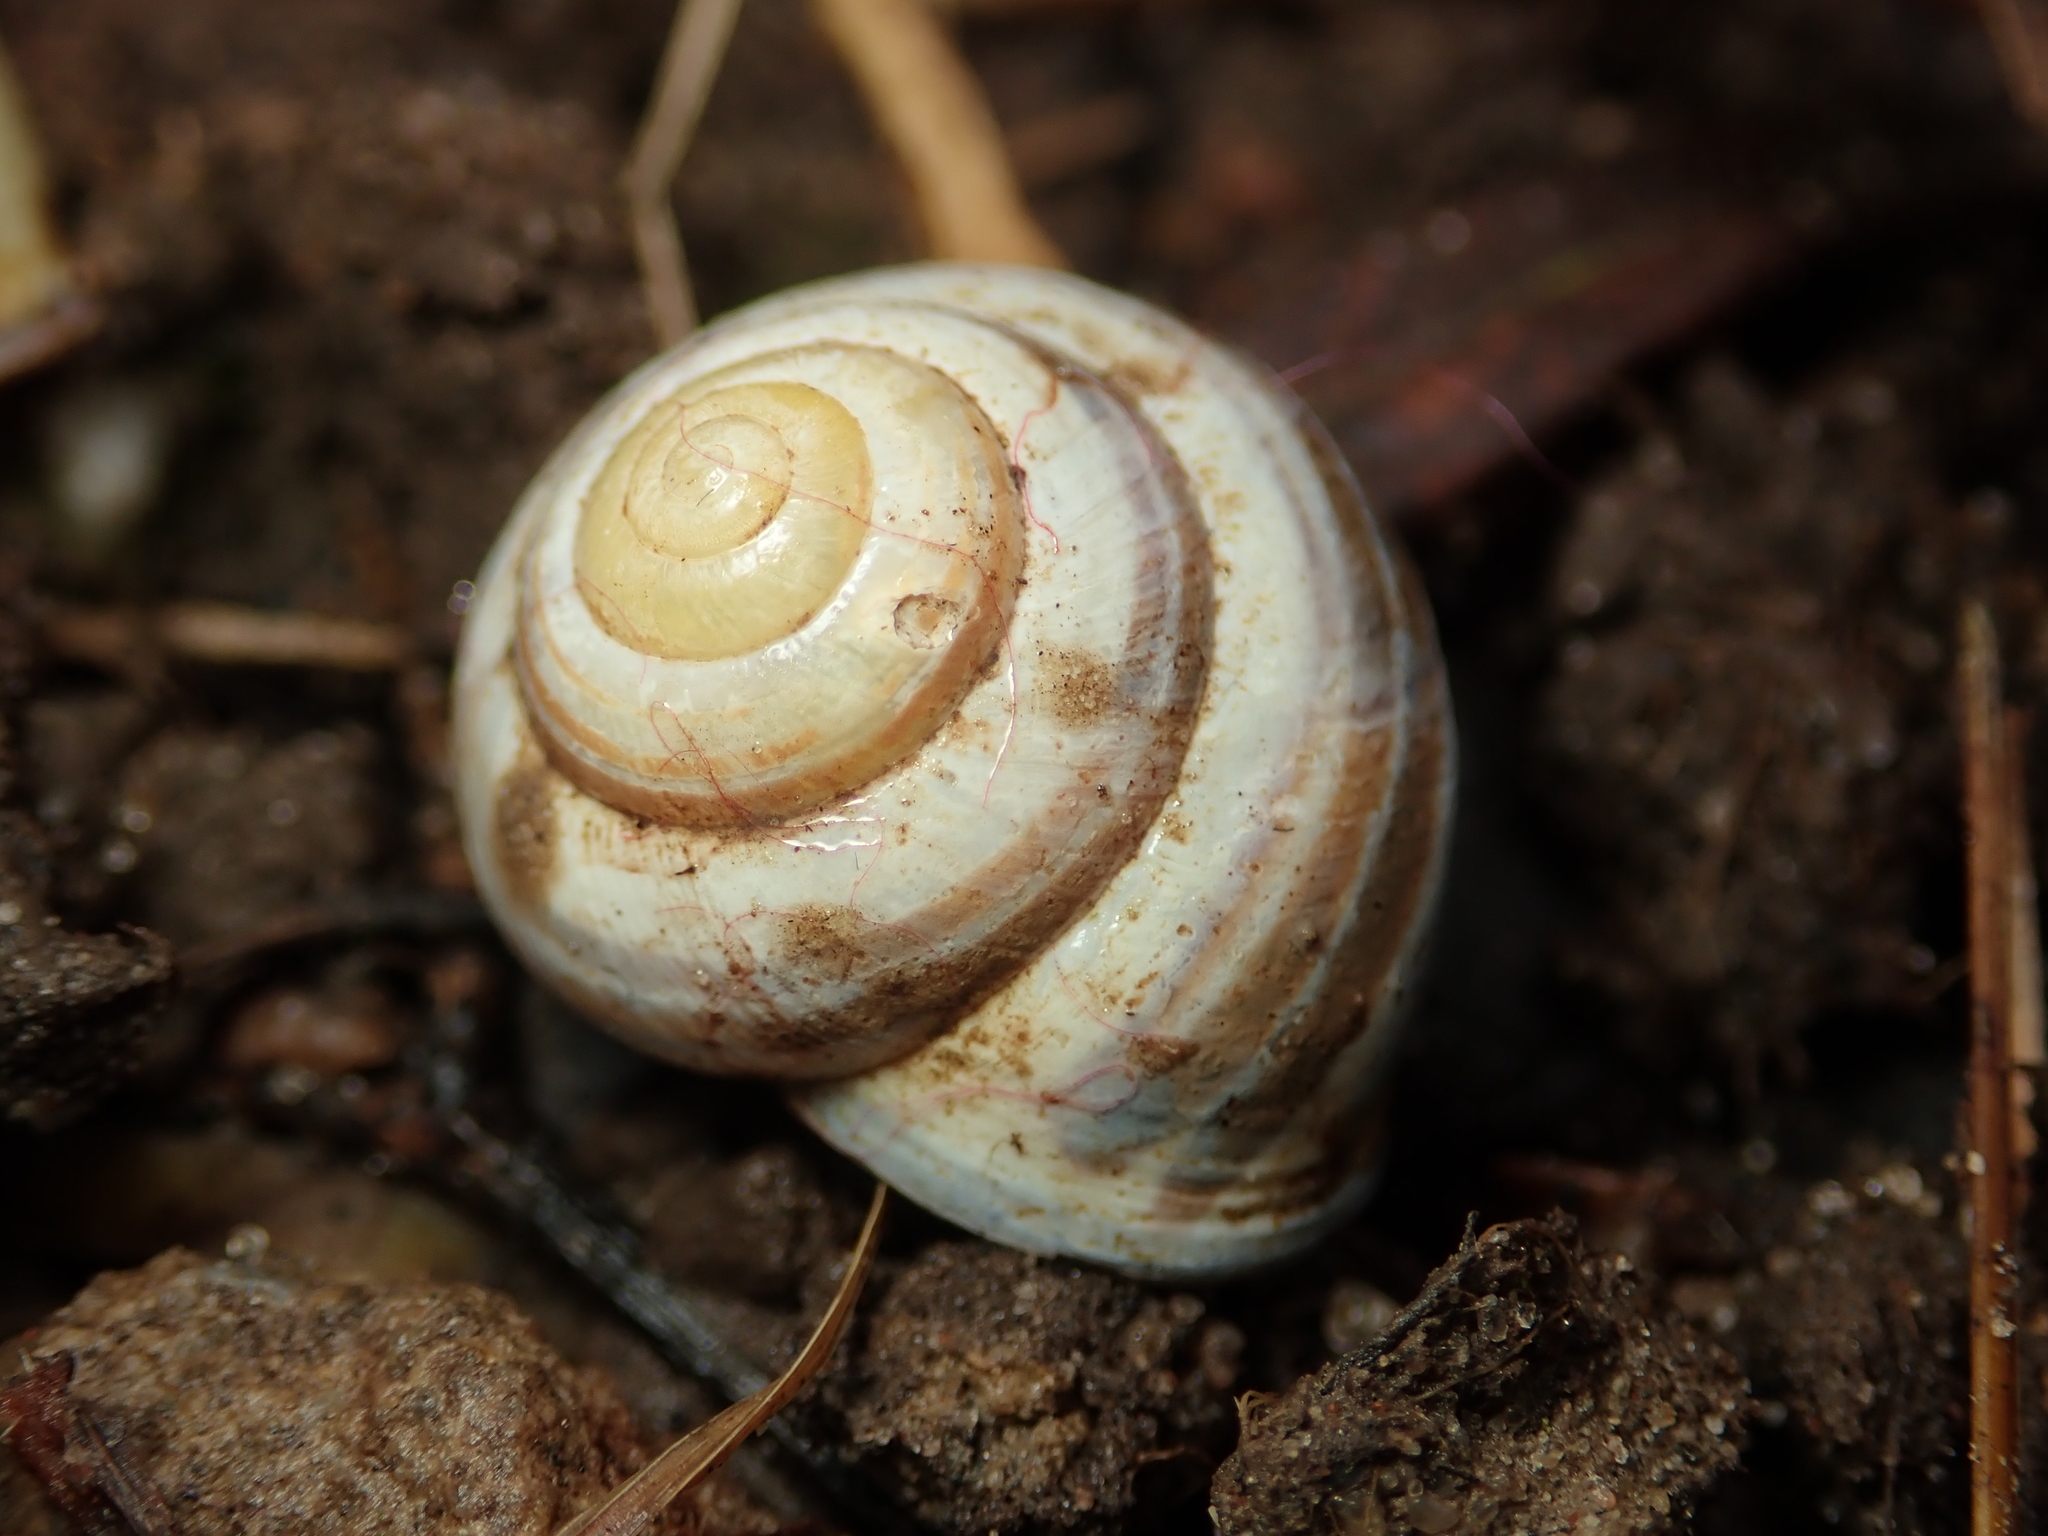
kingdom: Animalia
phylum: Mollusca
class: Gastropoda
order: Stylommatophora
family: Helicidae
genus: Cepaea
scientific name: Cepaea nemoralis
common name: Grovesnail
